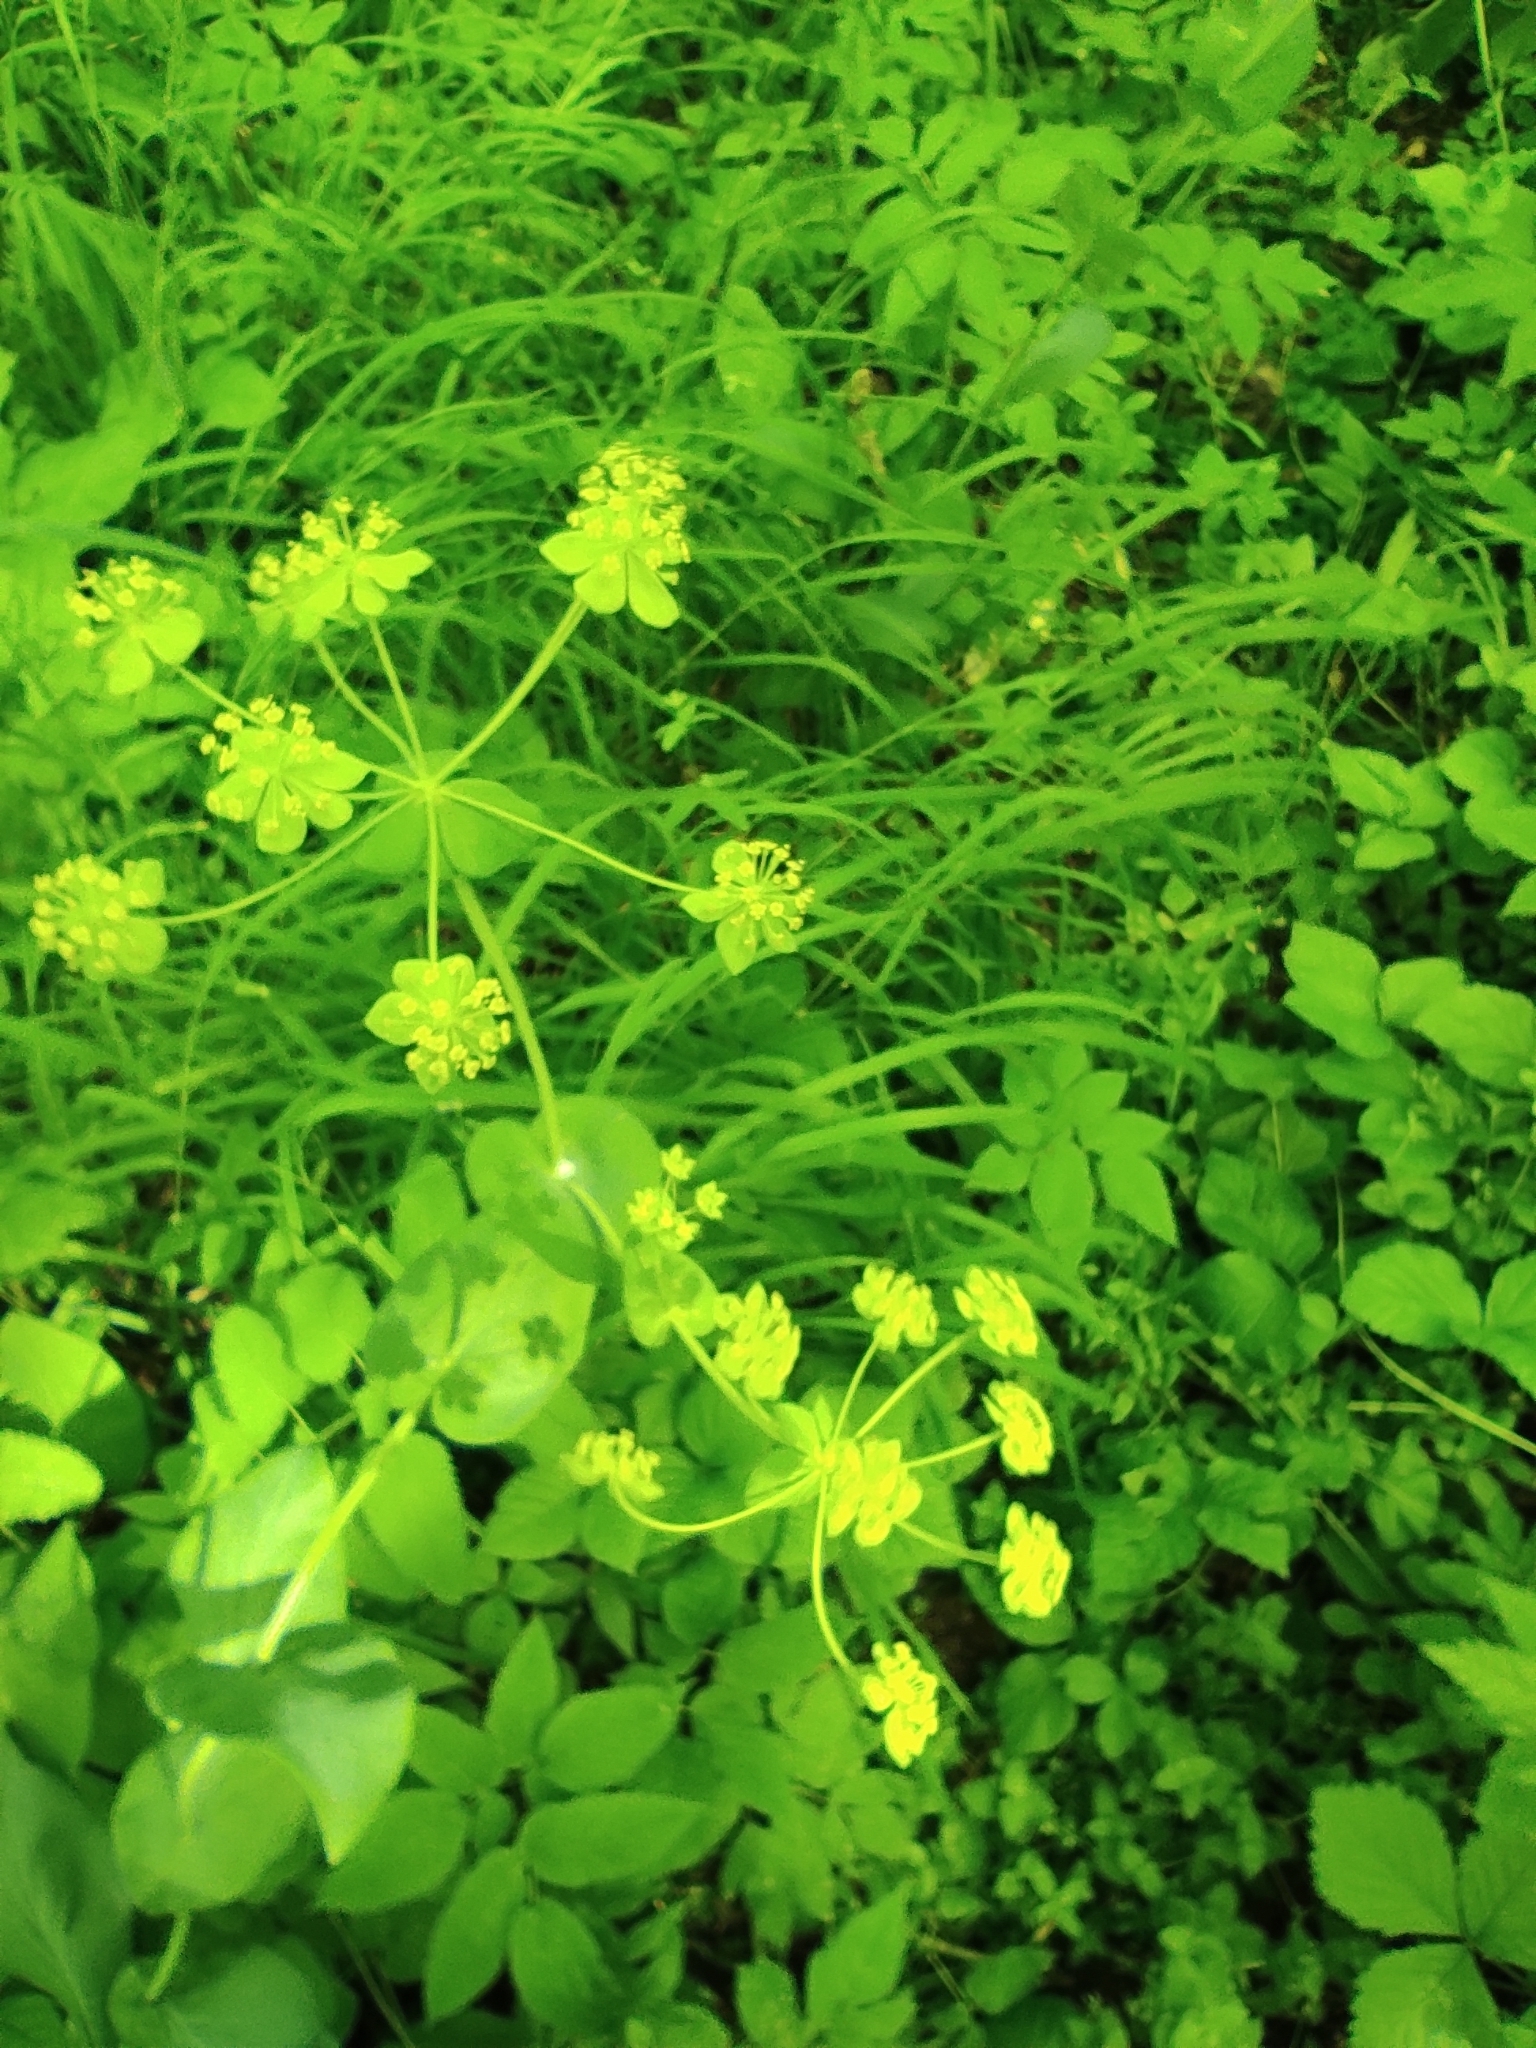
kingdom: Plantae
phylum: Tracheophyta
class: Magnoliopsida
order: Apiales
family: Apiaceae
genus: Bupleurum
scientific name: Bupleurum aureum
